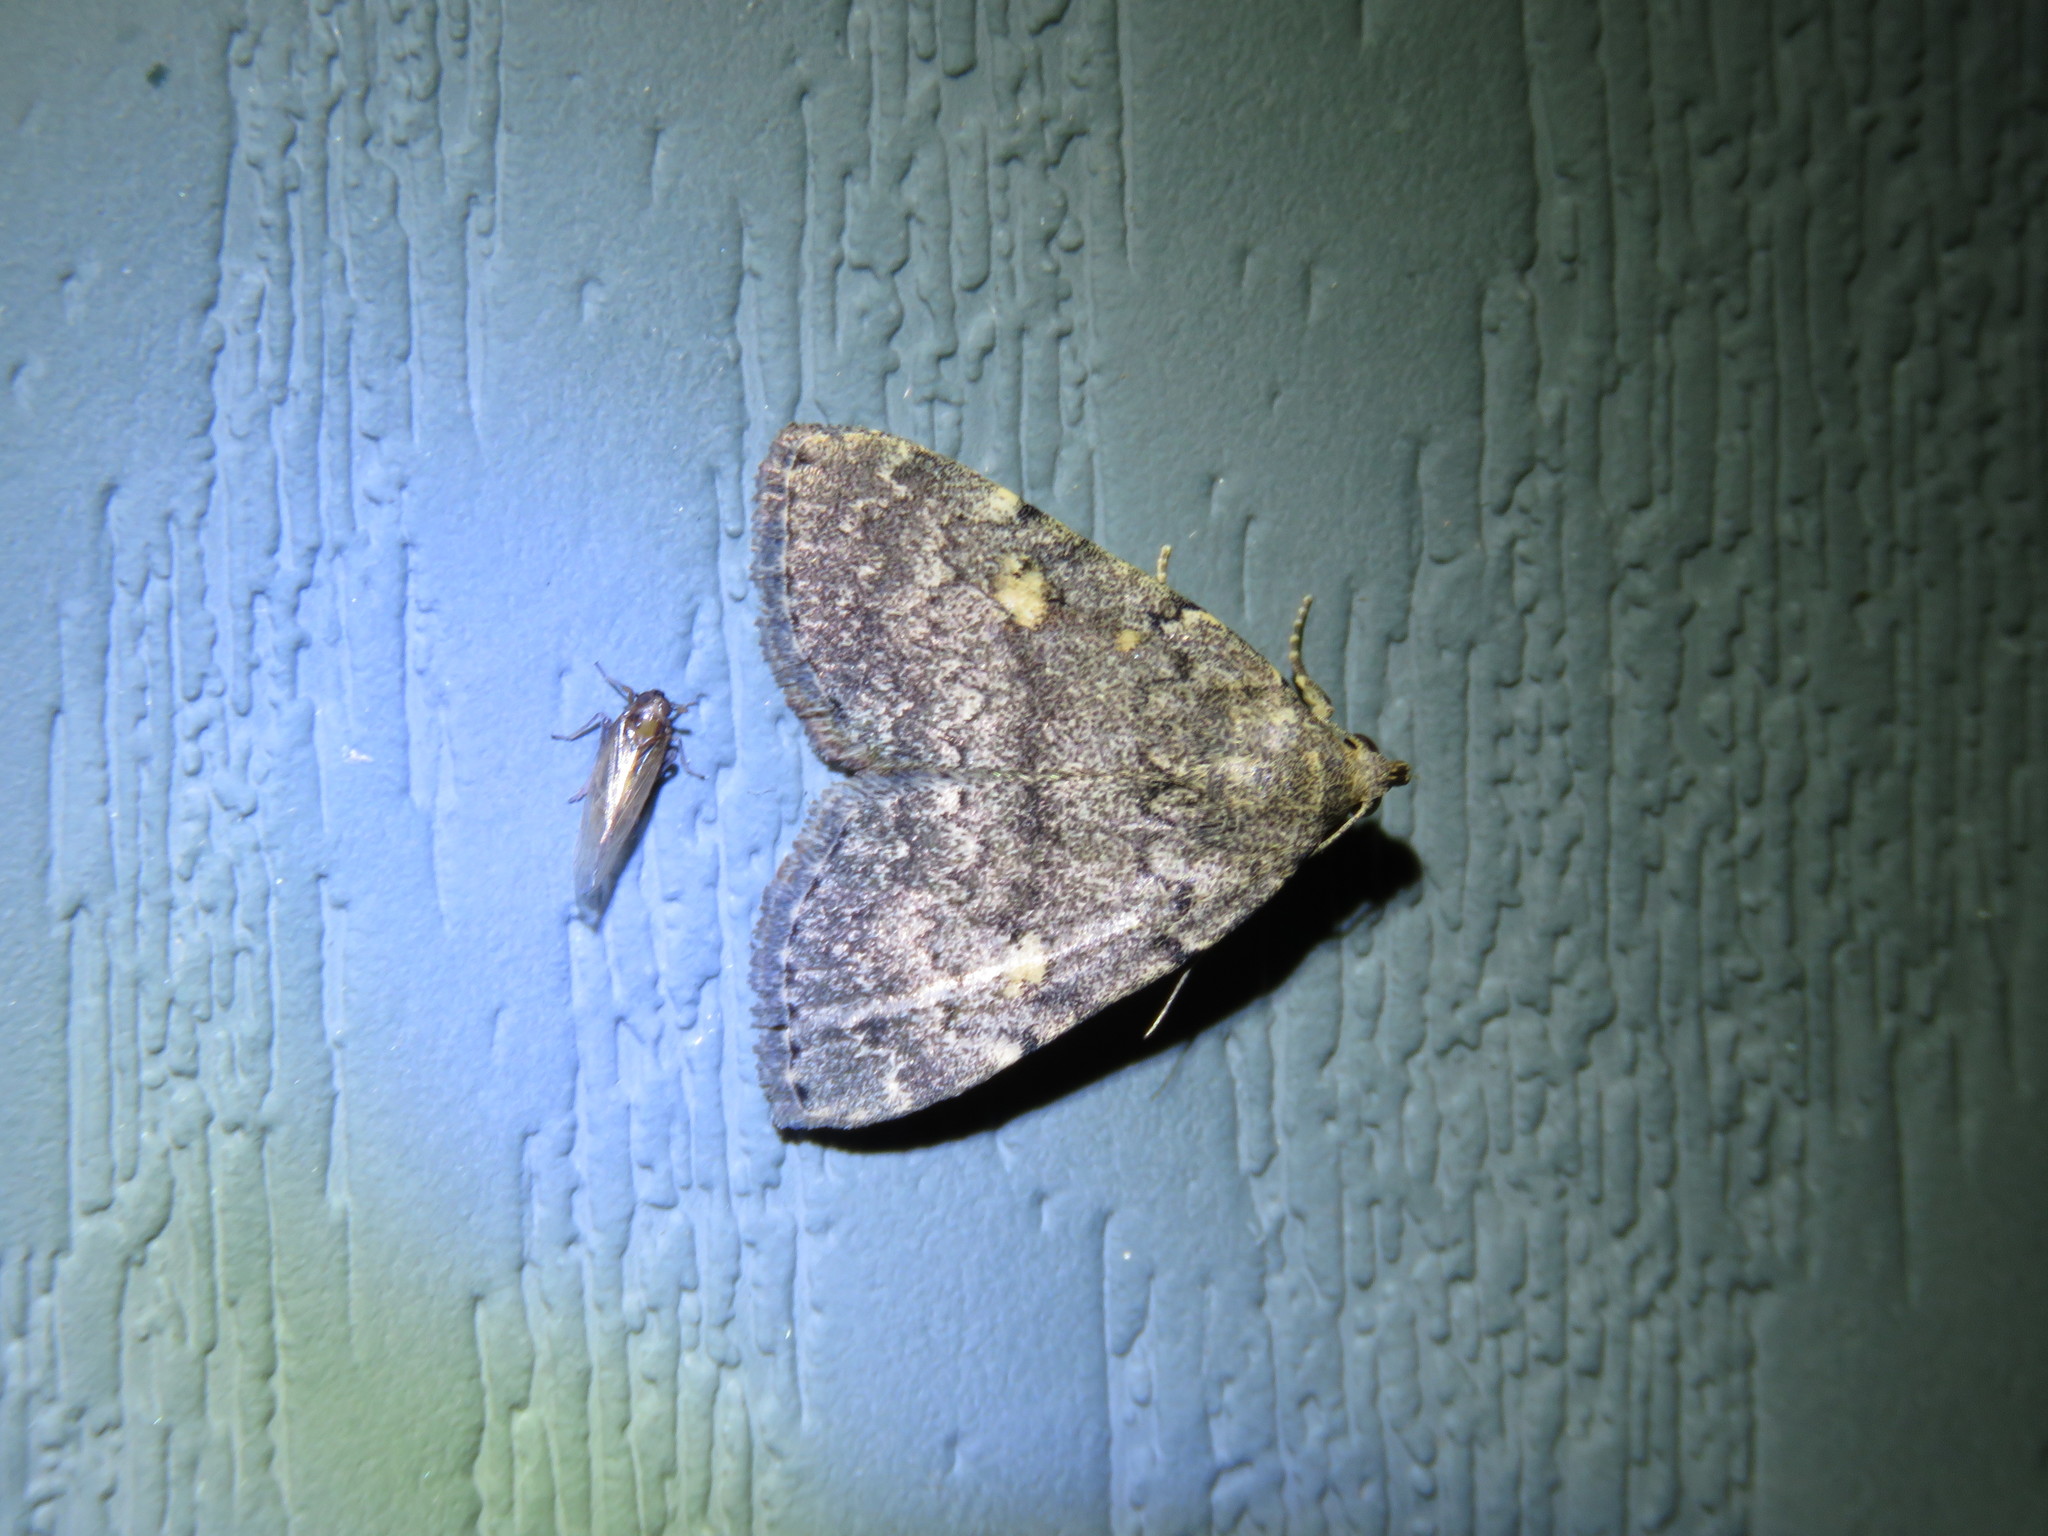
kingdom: Animalia
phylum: Arthropoda
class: Insecta
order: Lepidoptera
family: Erebidae
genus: Idia
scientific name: Idia aemula
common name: Common idia moth
